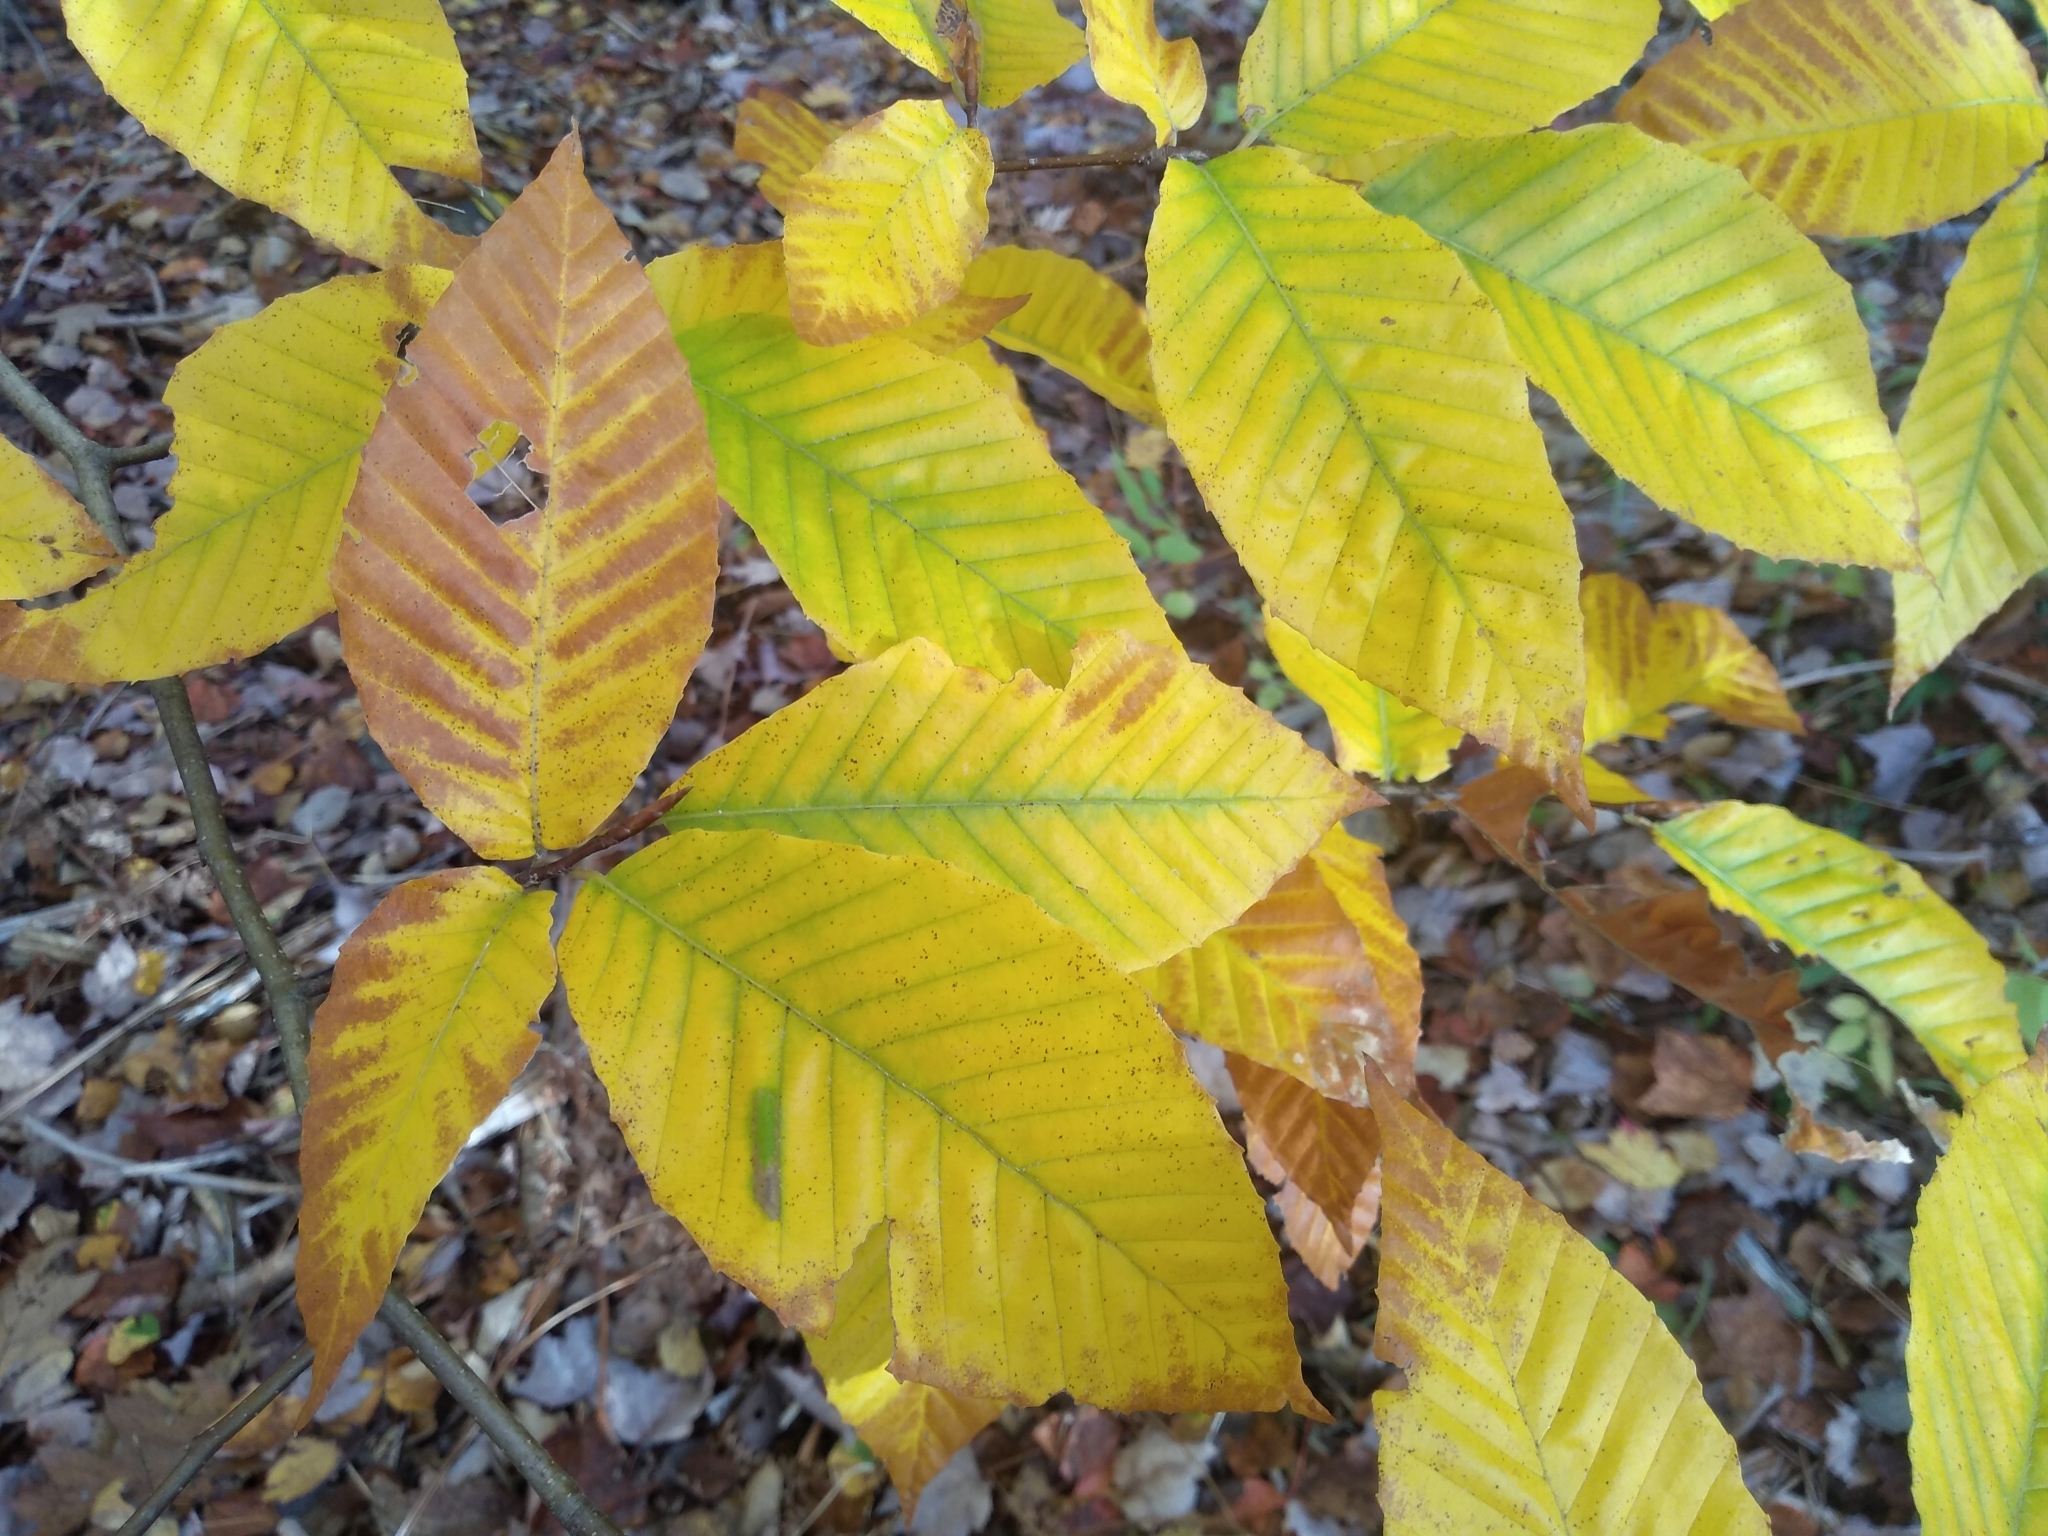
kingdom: Plantae
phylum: Tracheophyta
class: Magnoliopsida
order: Fagales
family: Fagaceae
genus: Fagus
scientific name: Fagus grandifolia
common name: American beech
